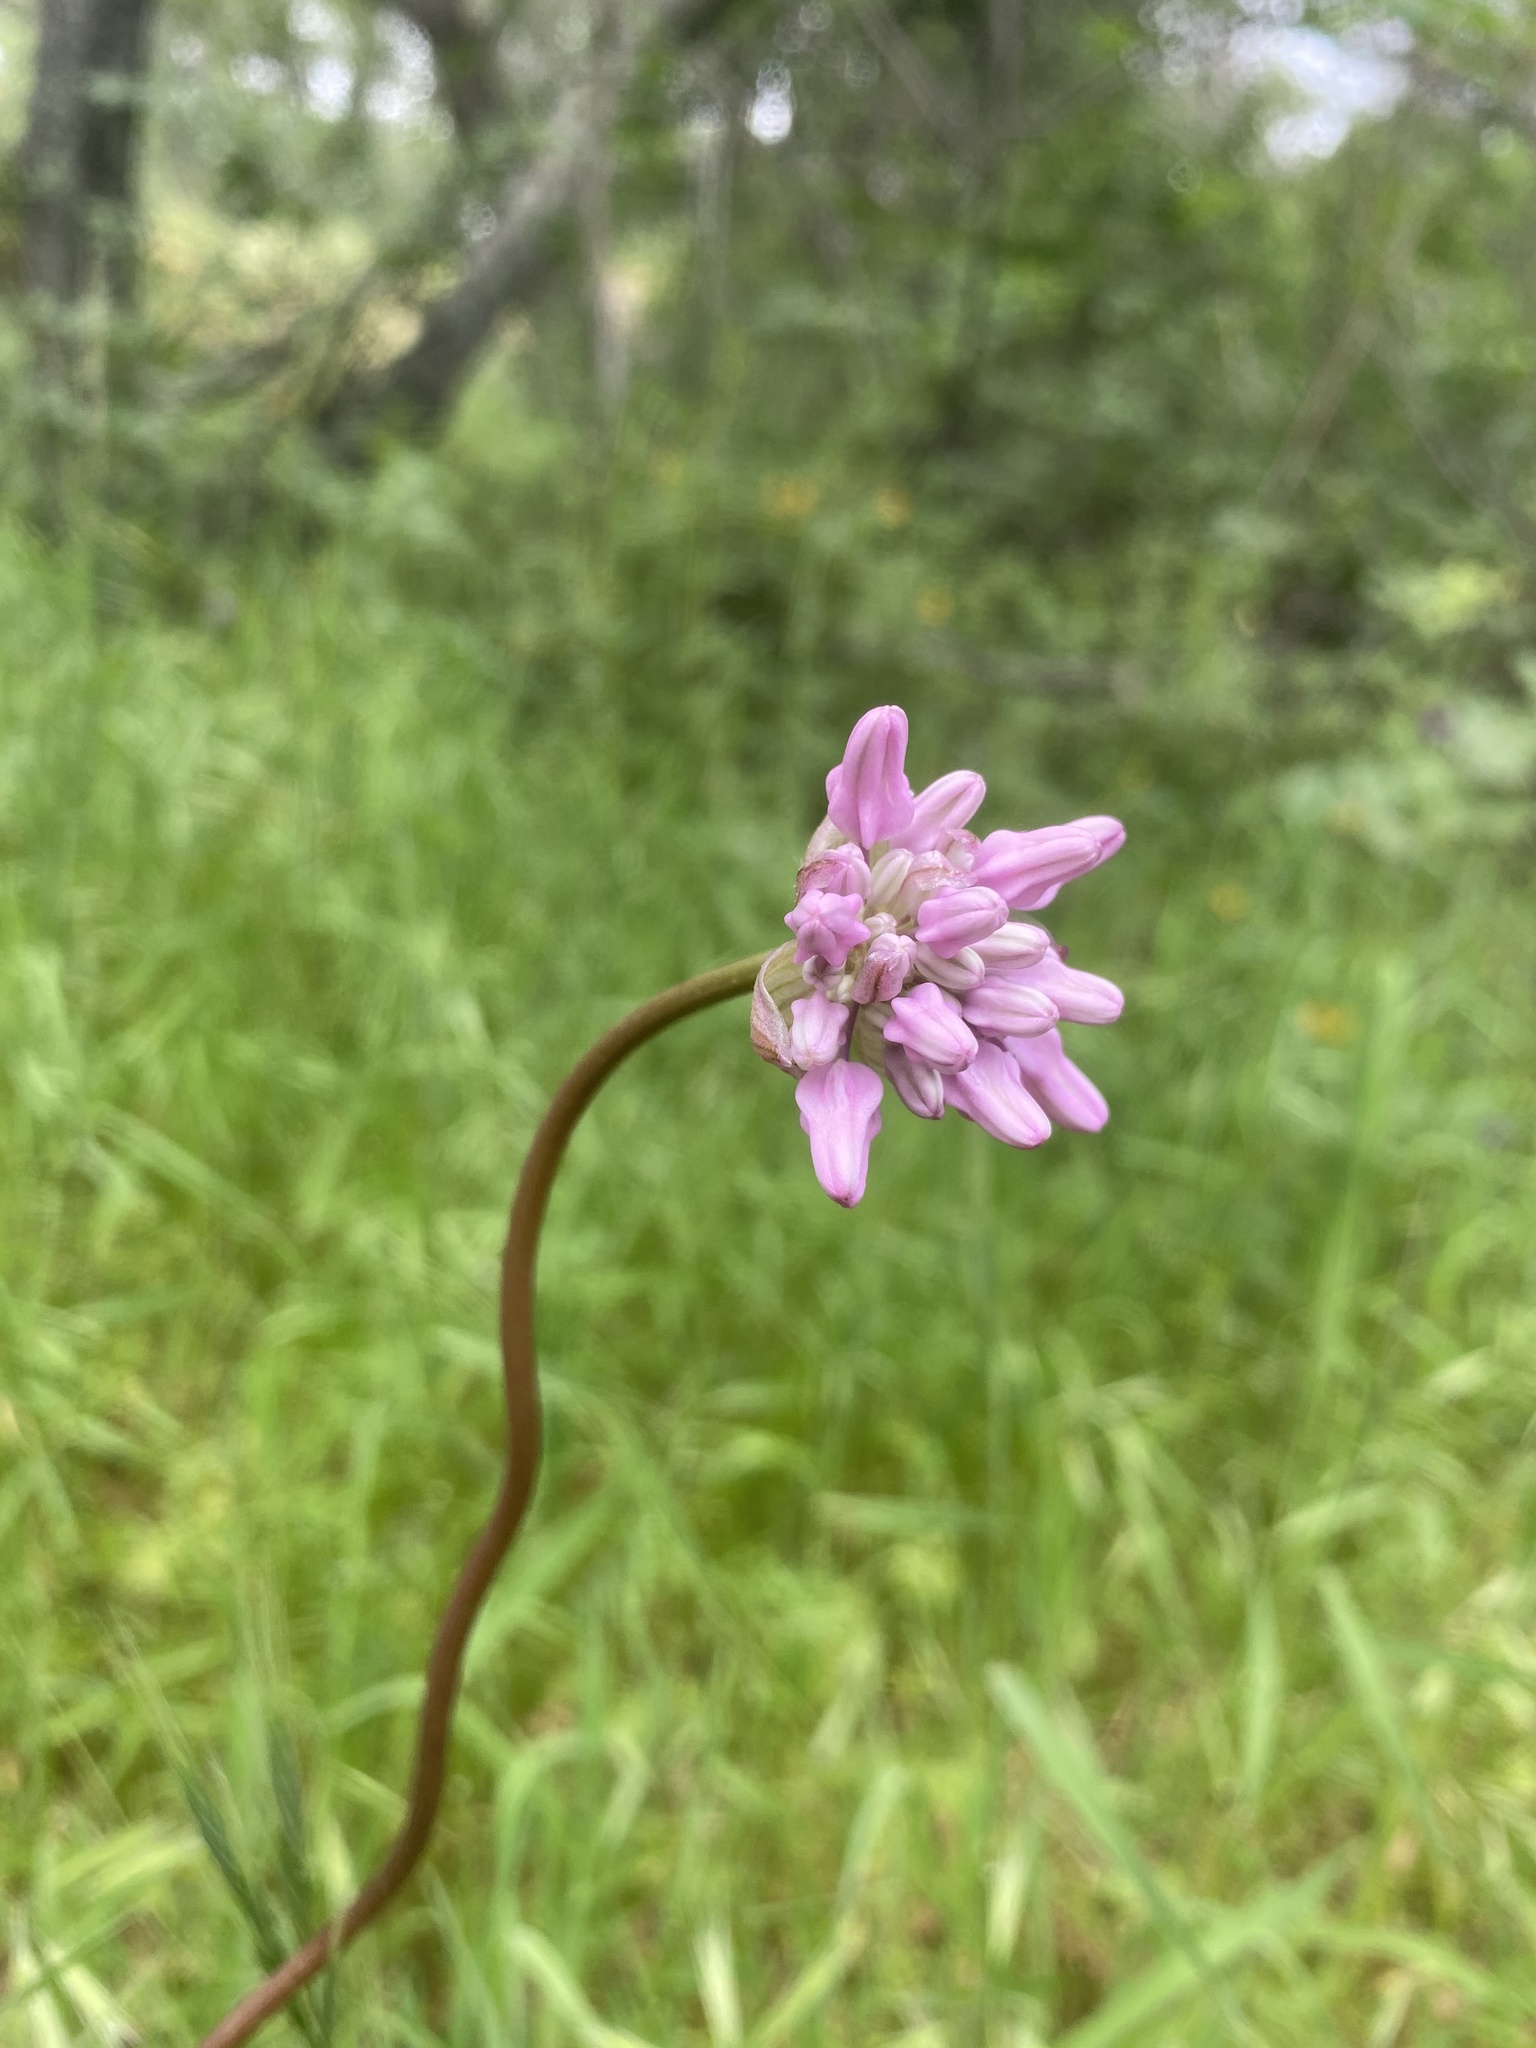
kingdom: Plantae
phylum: Tracheophyta
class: Liliopsida
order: Asparagales
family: Asparagaceae
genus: Dichelostemma
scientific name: Dichelostemma volubile
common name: Trining brodiaea
